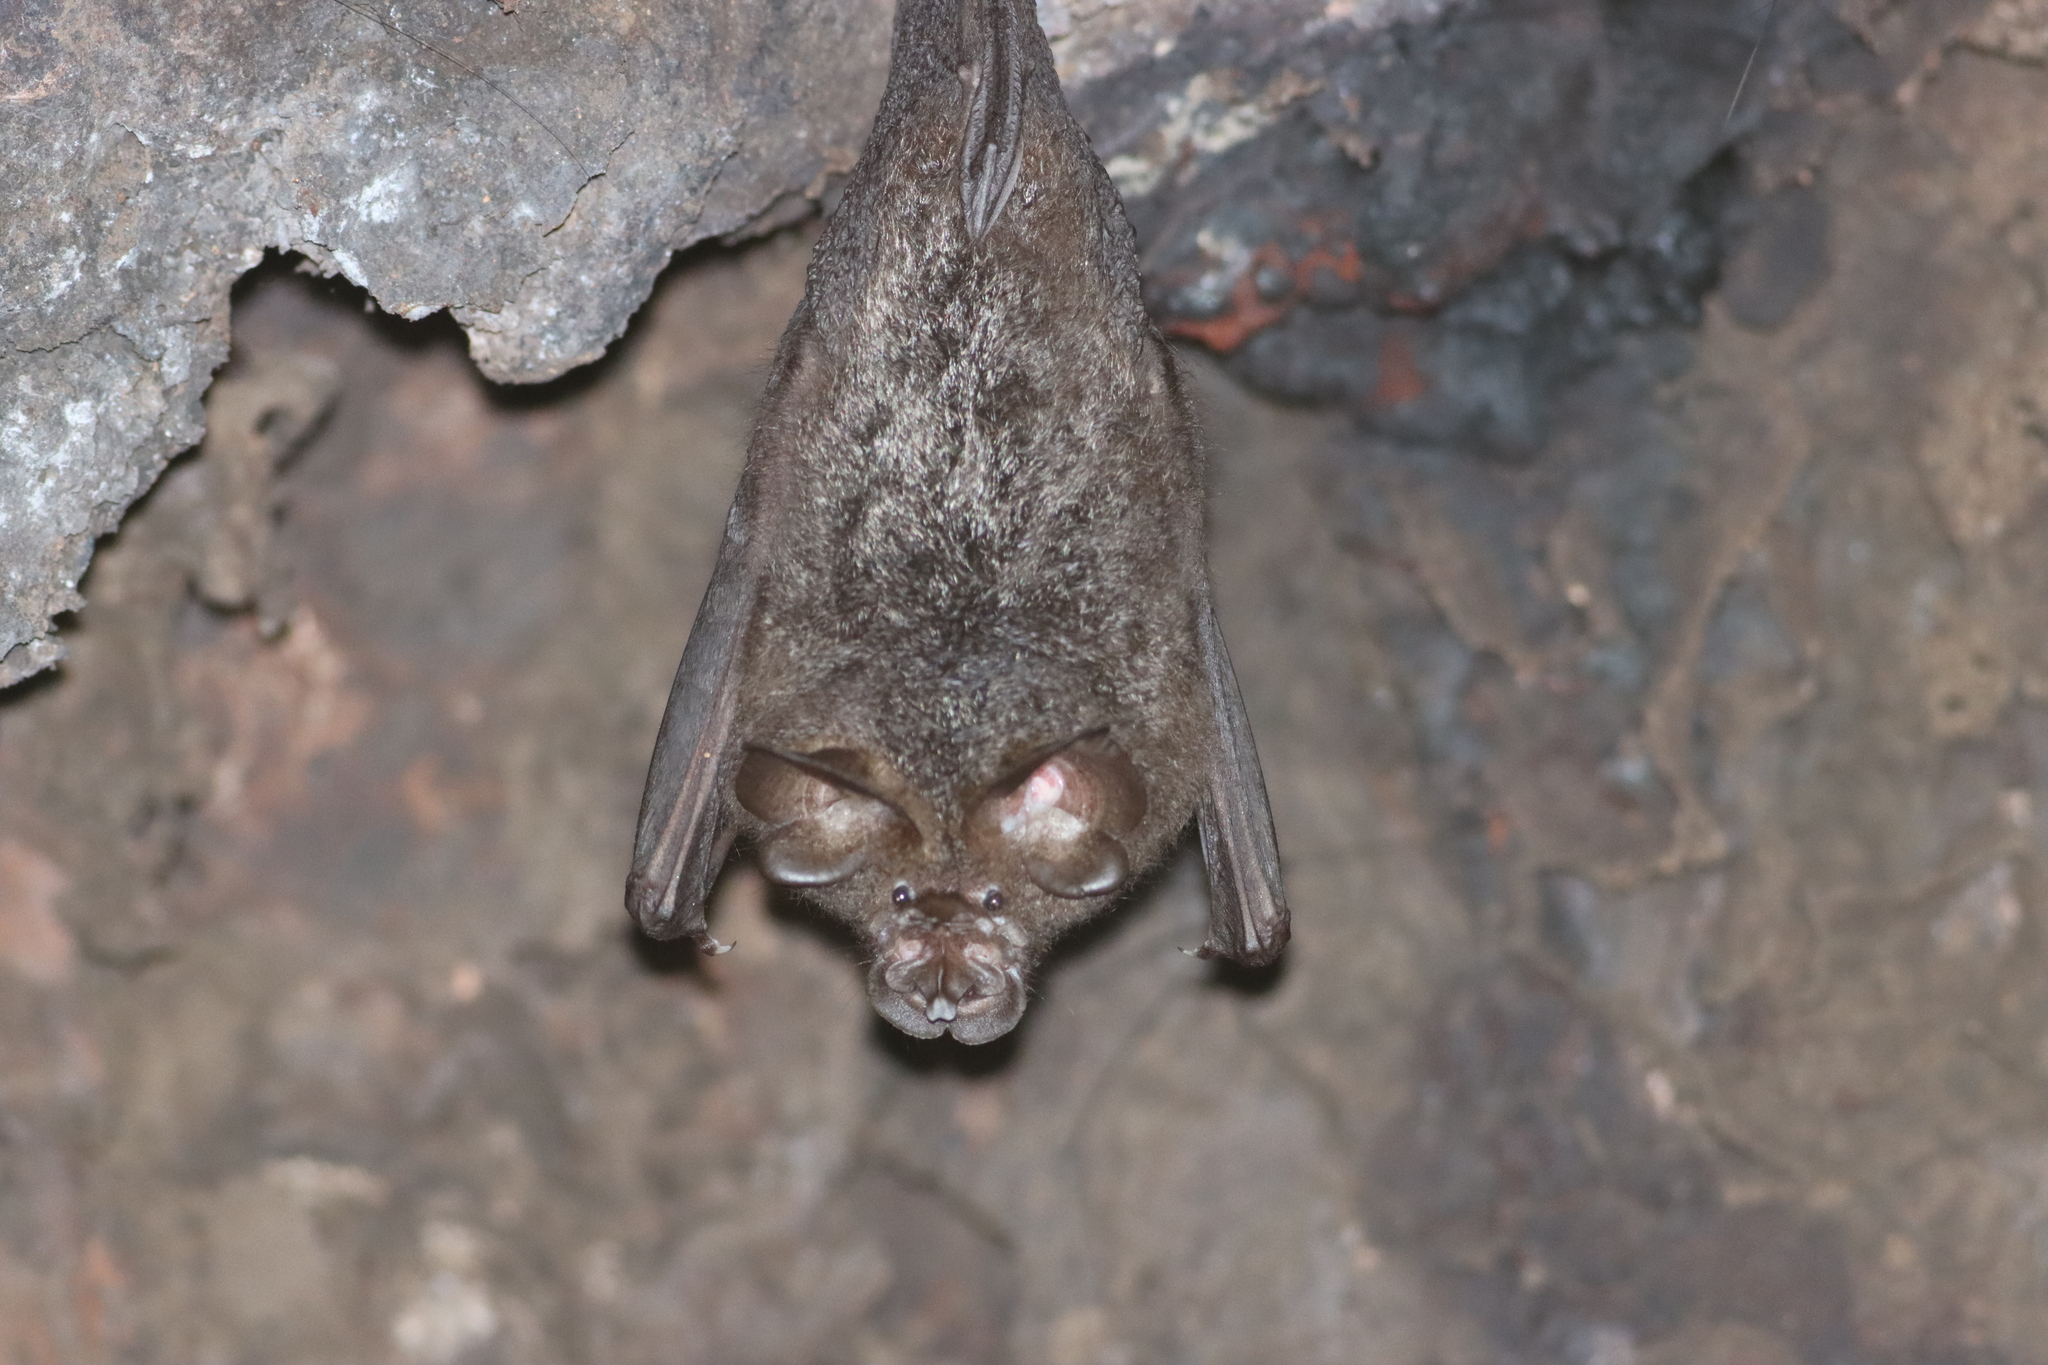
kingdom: Animalia
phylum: Chordata
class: Mammalia
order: Chiroptera
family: Rhinolophidae
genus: Rhinolophus
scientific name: Rhinolophus luctus
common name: Woolly horseshoe bat
